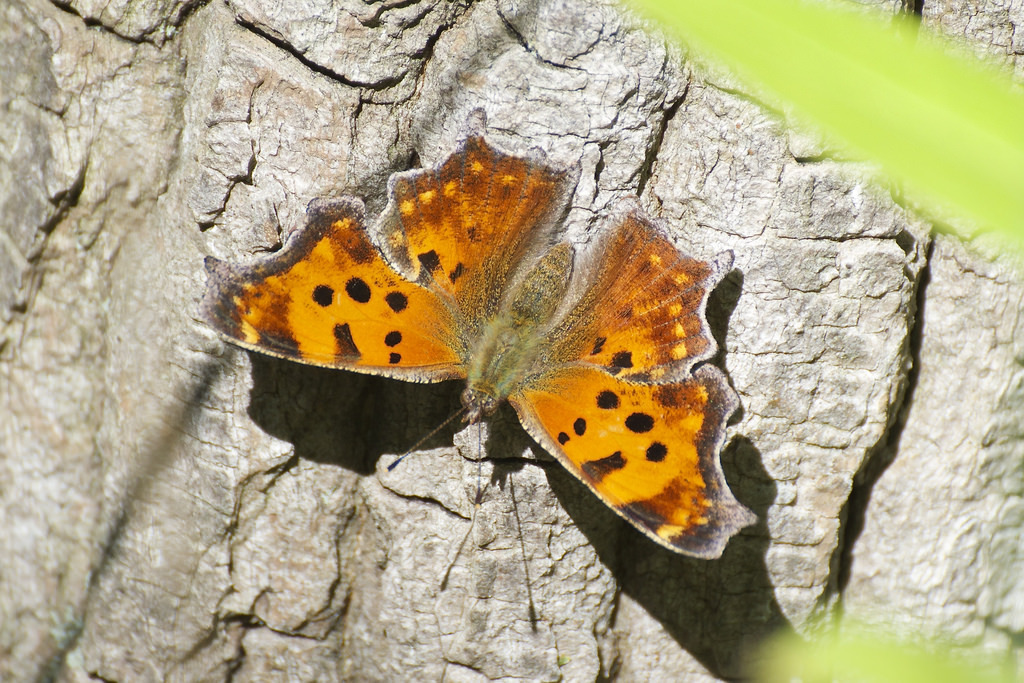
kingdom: Animalia
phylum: Arthropoda
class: Insecta
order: Lepidoptera
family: Nymphalidae
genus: Polygonia
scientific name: Polygonia comma
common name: Eastern comma
